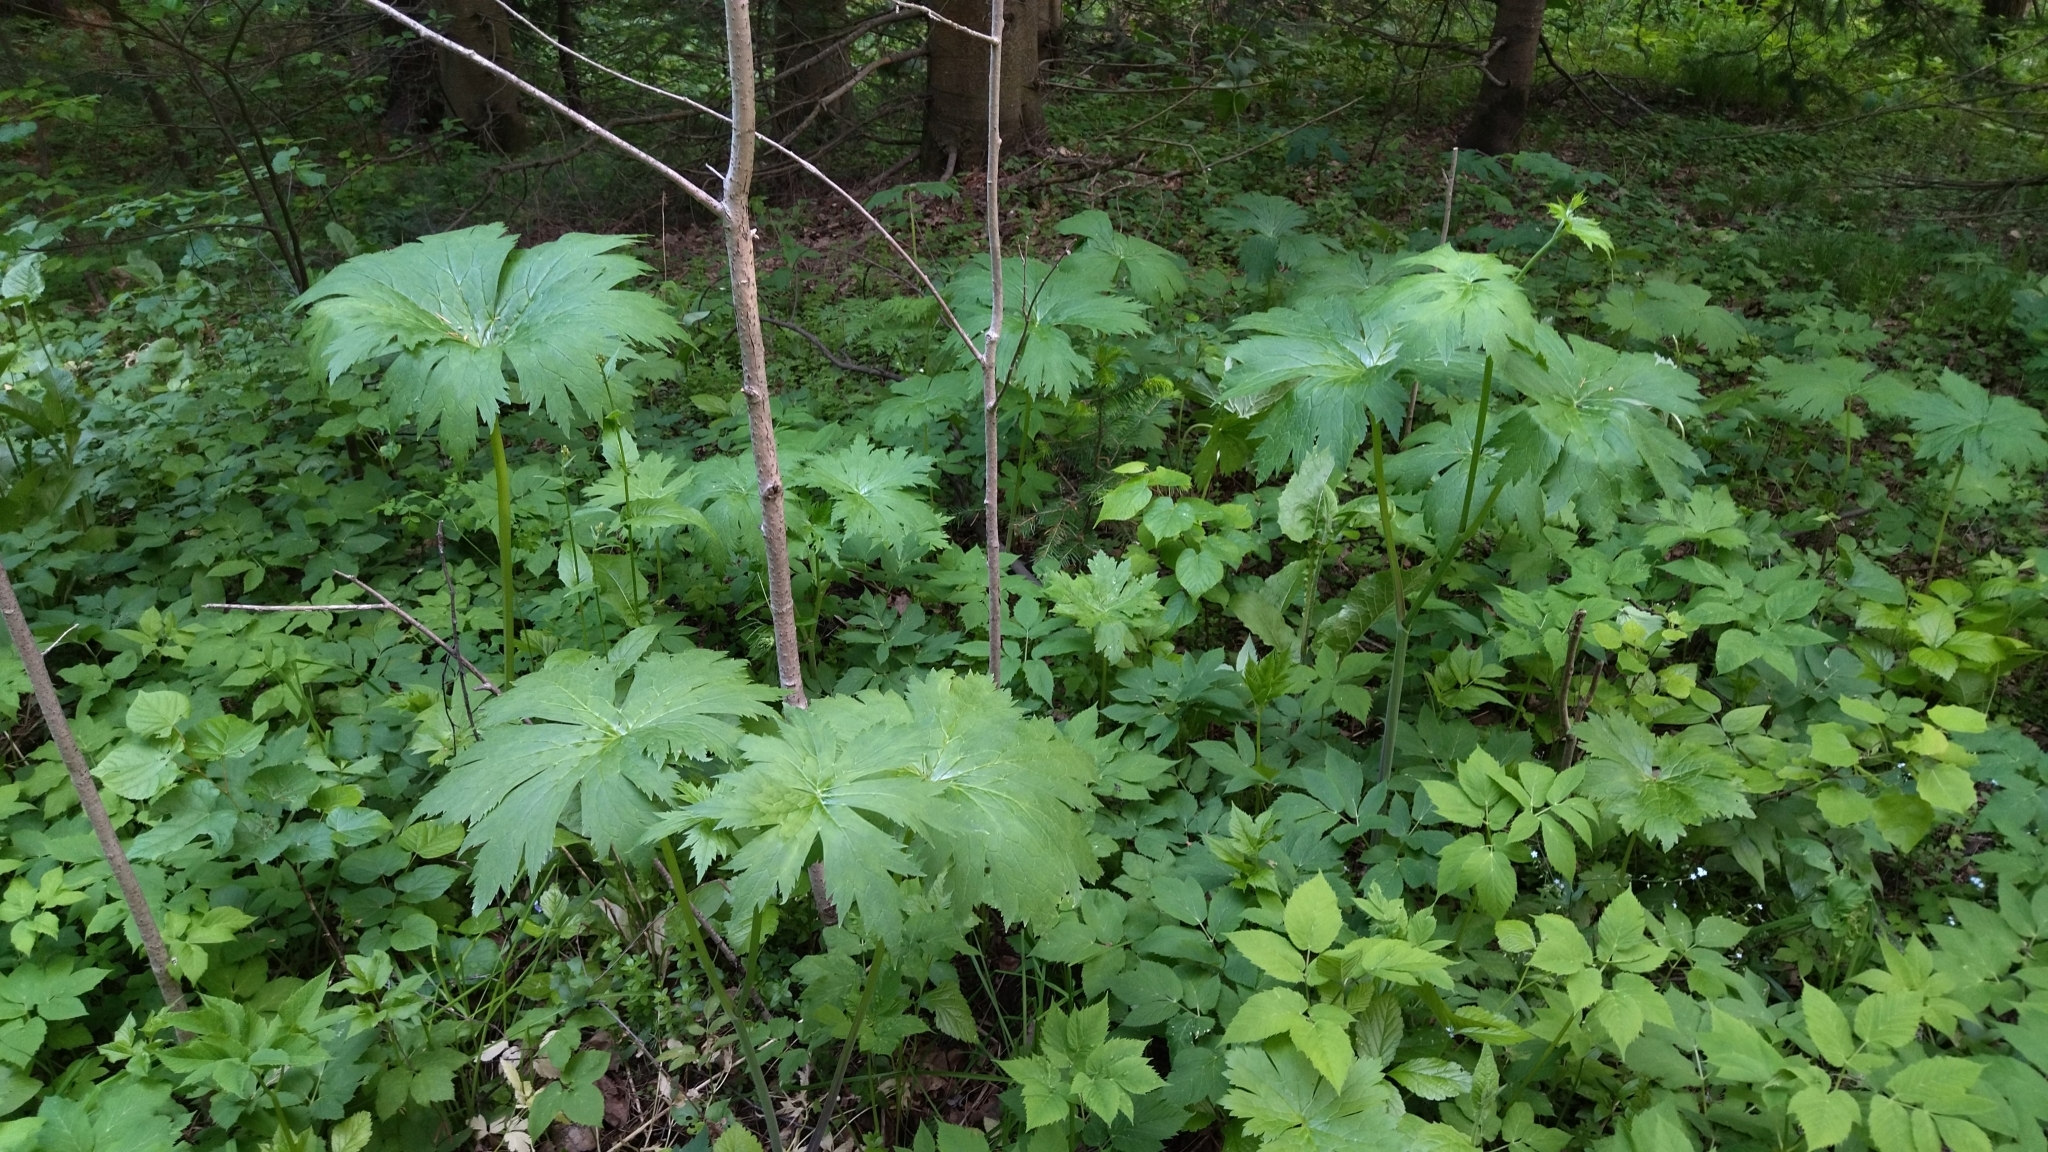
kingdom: Plantae
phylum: Tracheophyta
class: Magnoliopsida
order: Ranunculales
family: Ranunculaceae
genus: Aconitum
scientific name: Aconitum septentrionale
